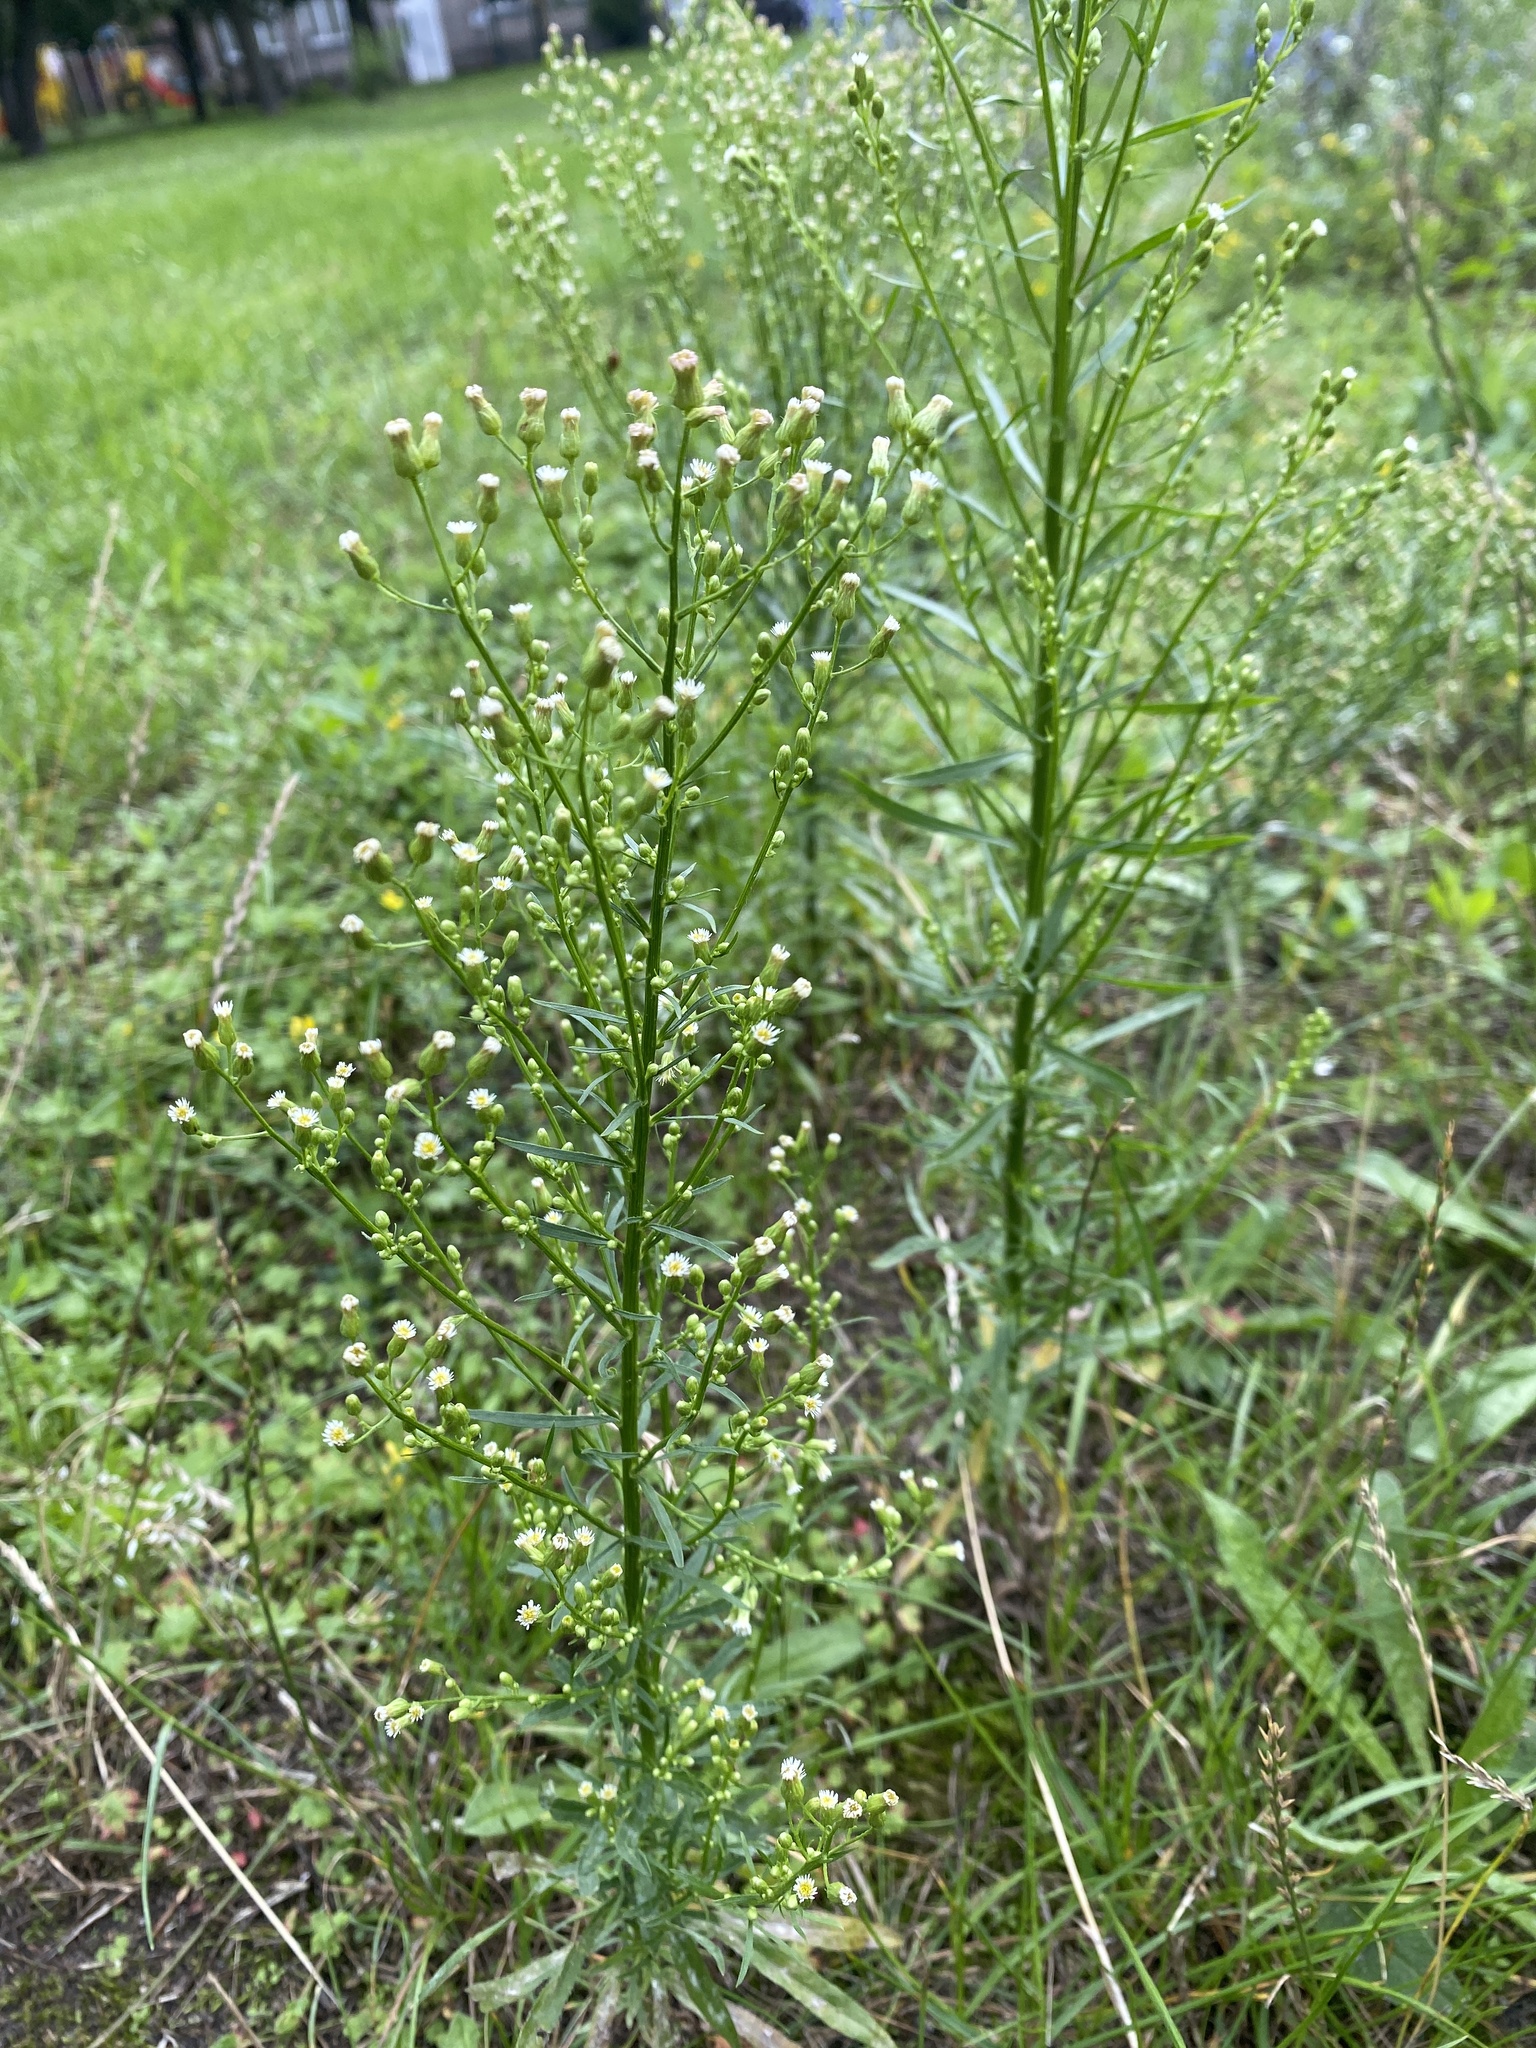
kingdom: Plantae
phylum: Tracheophyta
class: Magnoliopsida
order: Asterales
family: Asteraceae
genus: Erigeron
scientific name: Erigeron canadensis
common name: Canadian fleabane
